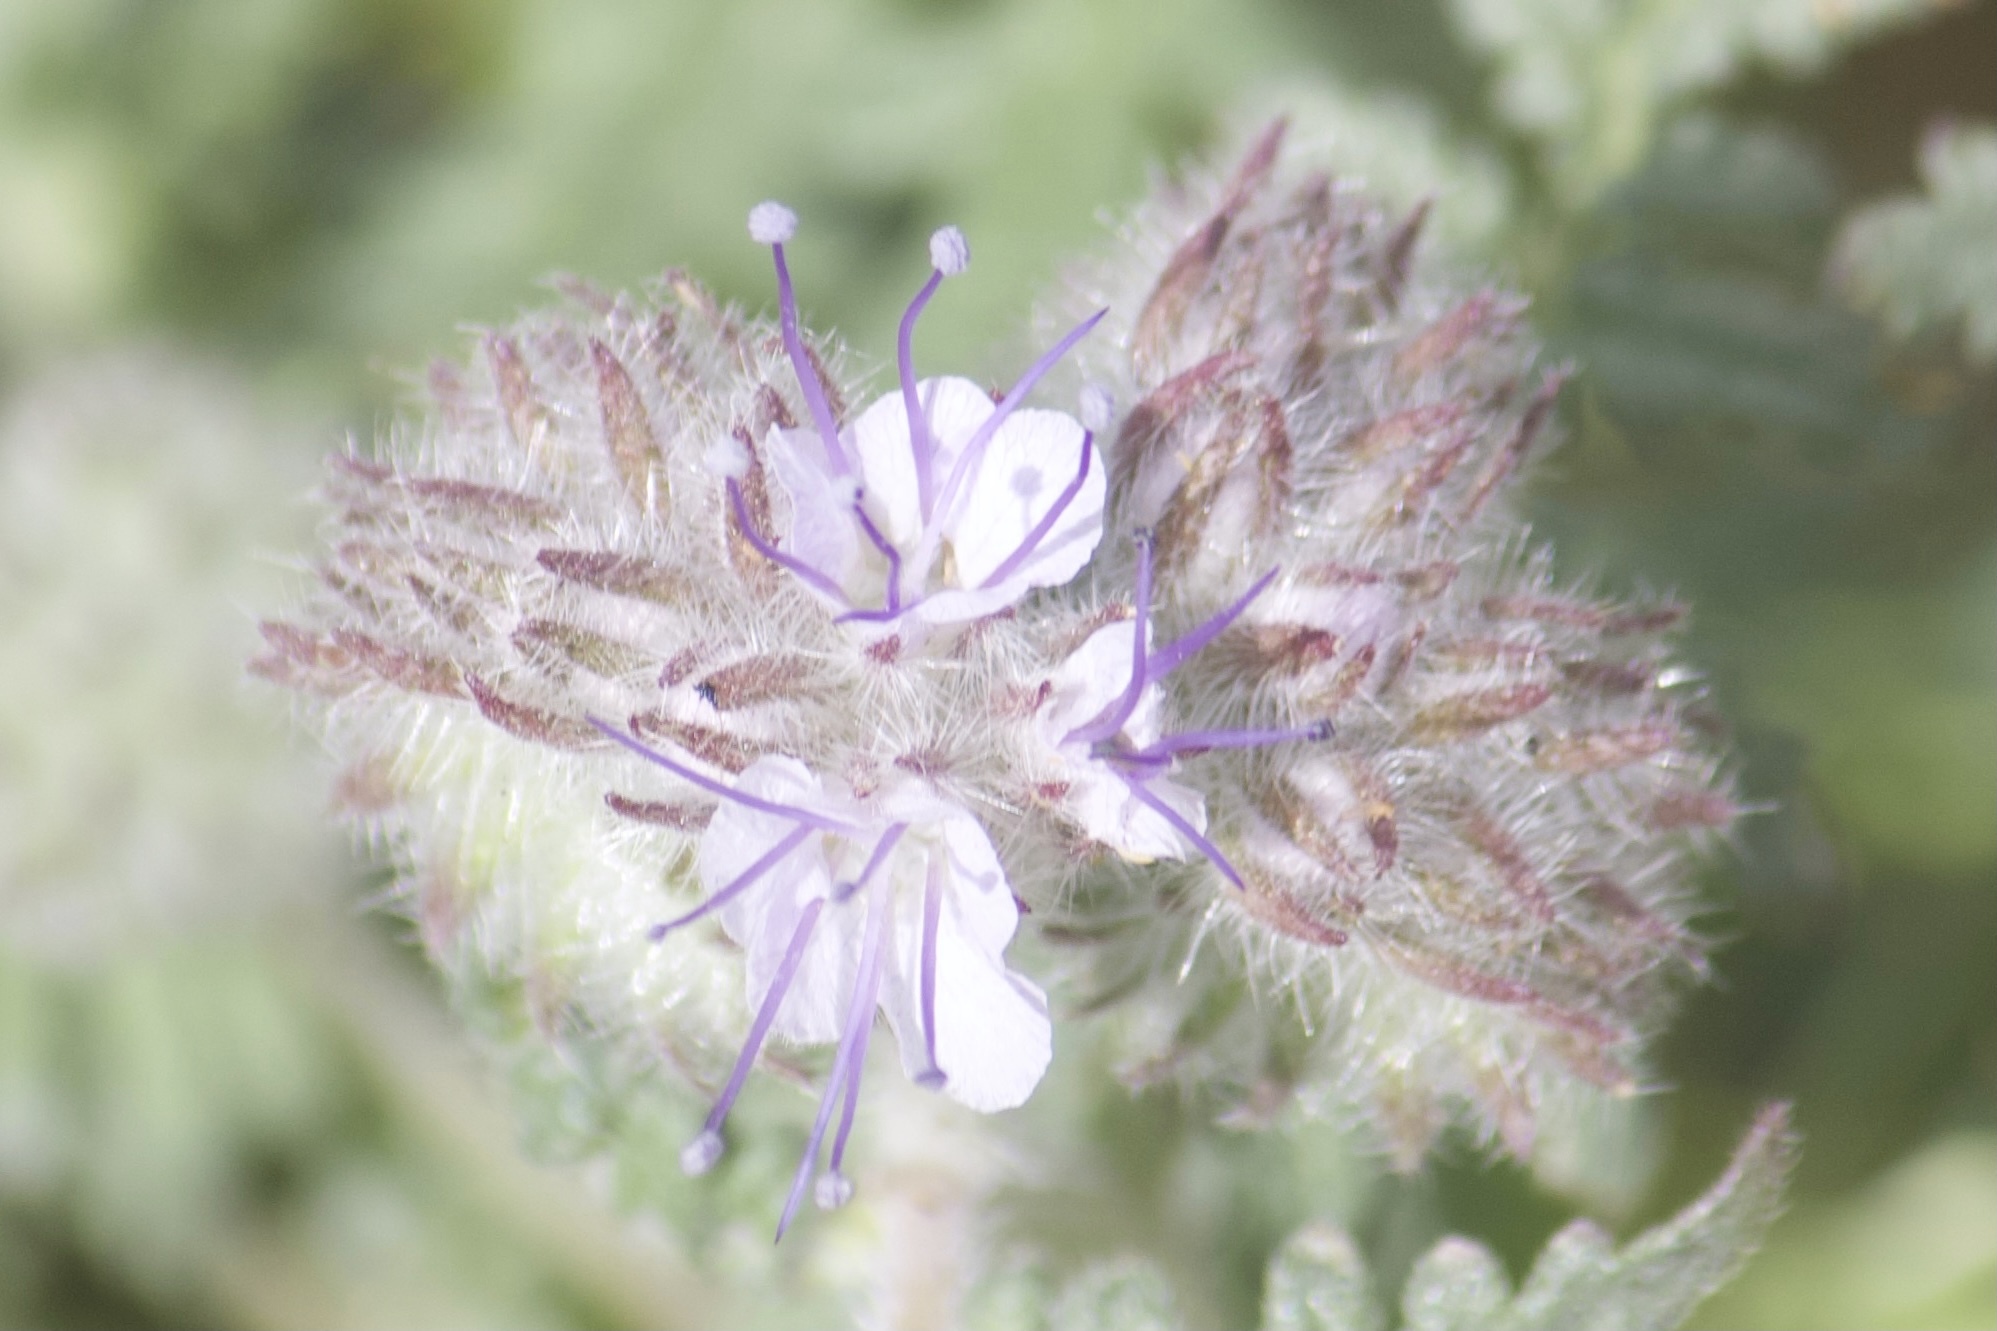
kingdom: Plantae
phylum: Tracheophyta
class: Magnoliopsida
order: Boraginales
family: Hydrophyllaceae
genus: Phacelia
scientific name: Phacelia tanacetifolia
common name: Phacelia
